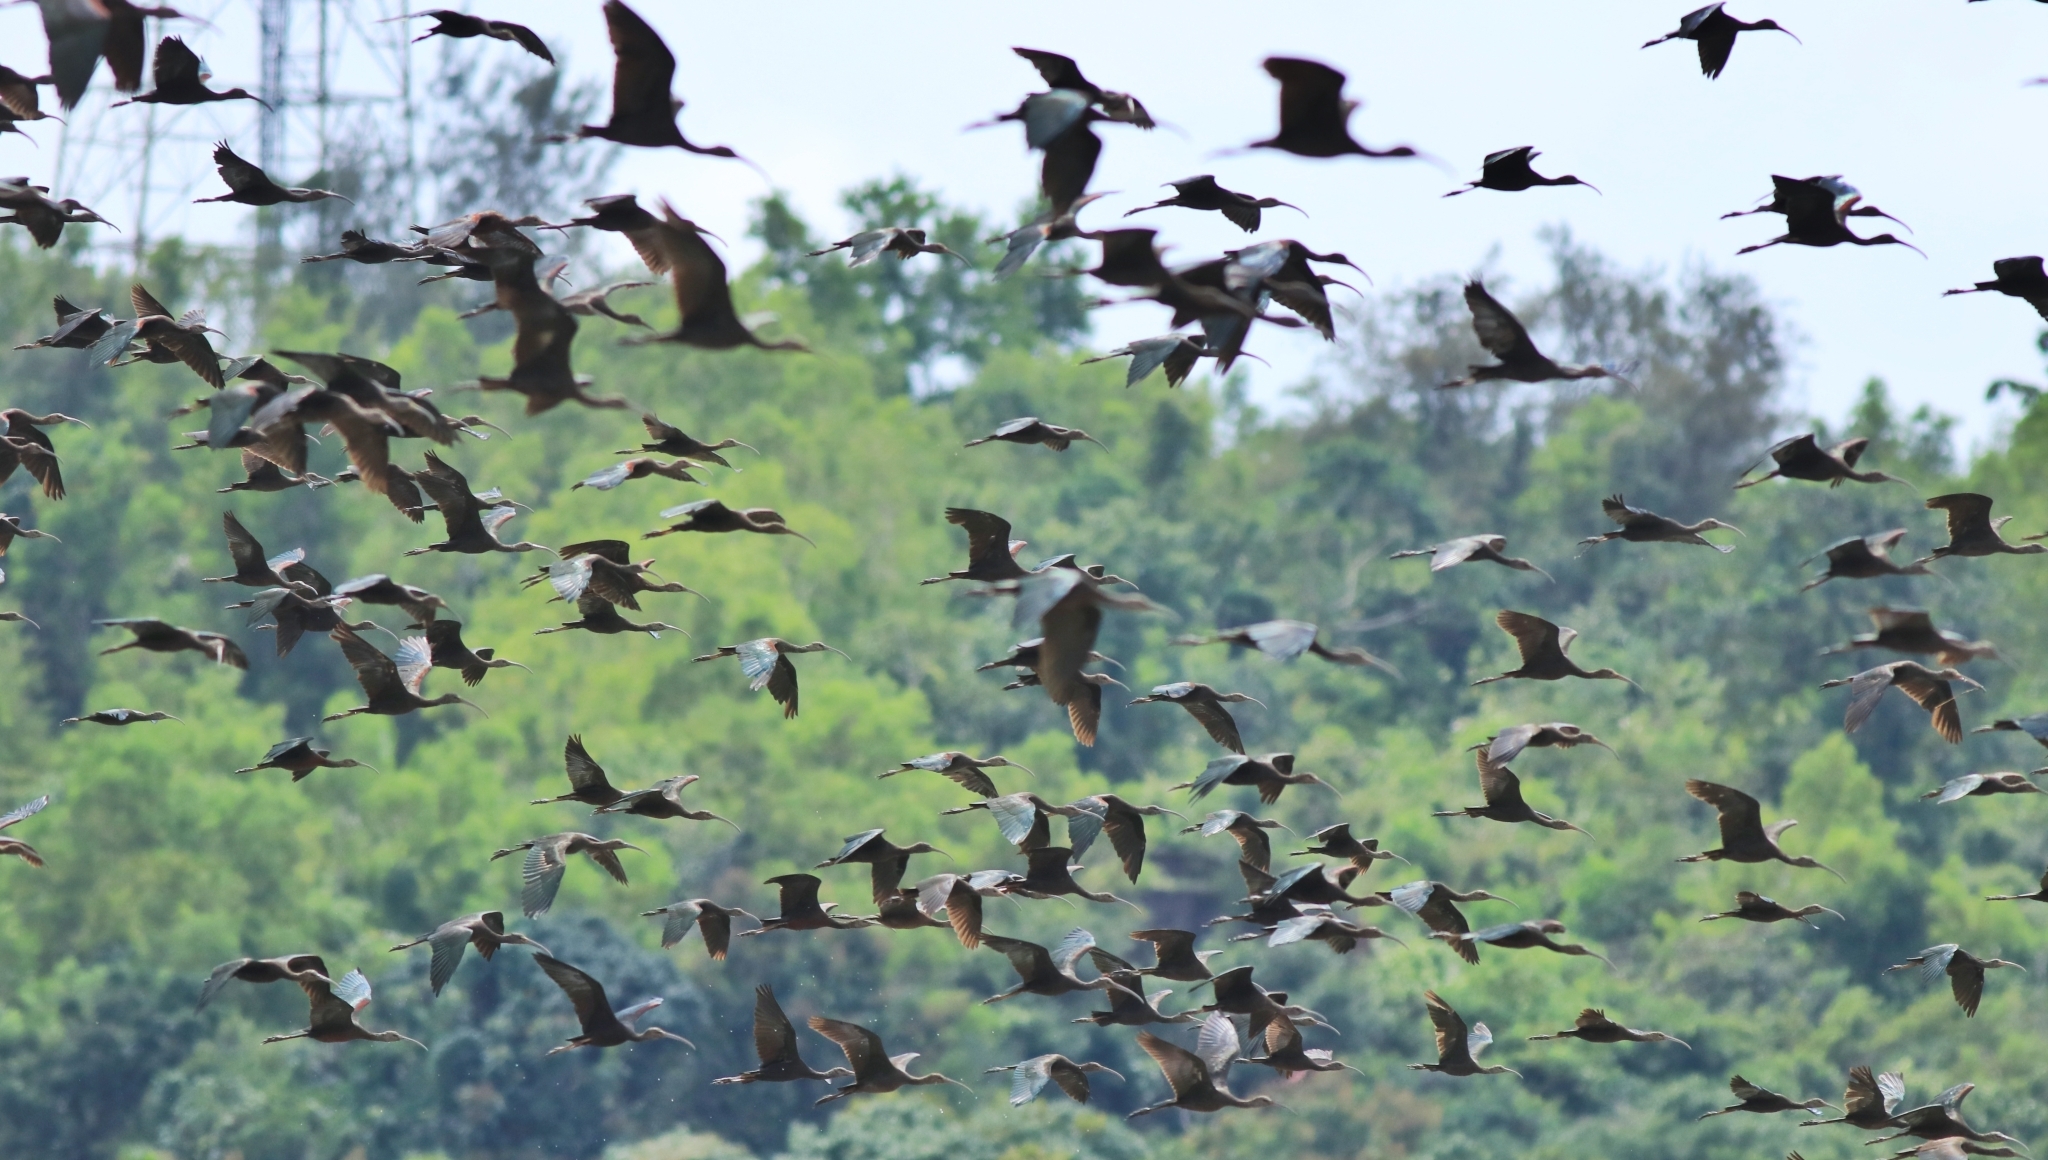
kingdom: Animalia
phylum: Chordata
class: Aves
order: Pelecaniformes
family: Threskiornithidae
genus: Plegadis
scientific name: Plegadis falcinellus
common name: Glossy ibis
